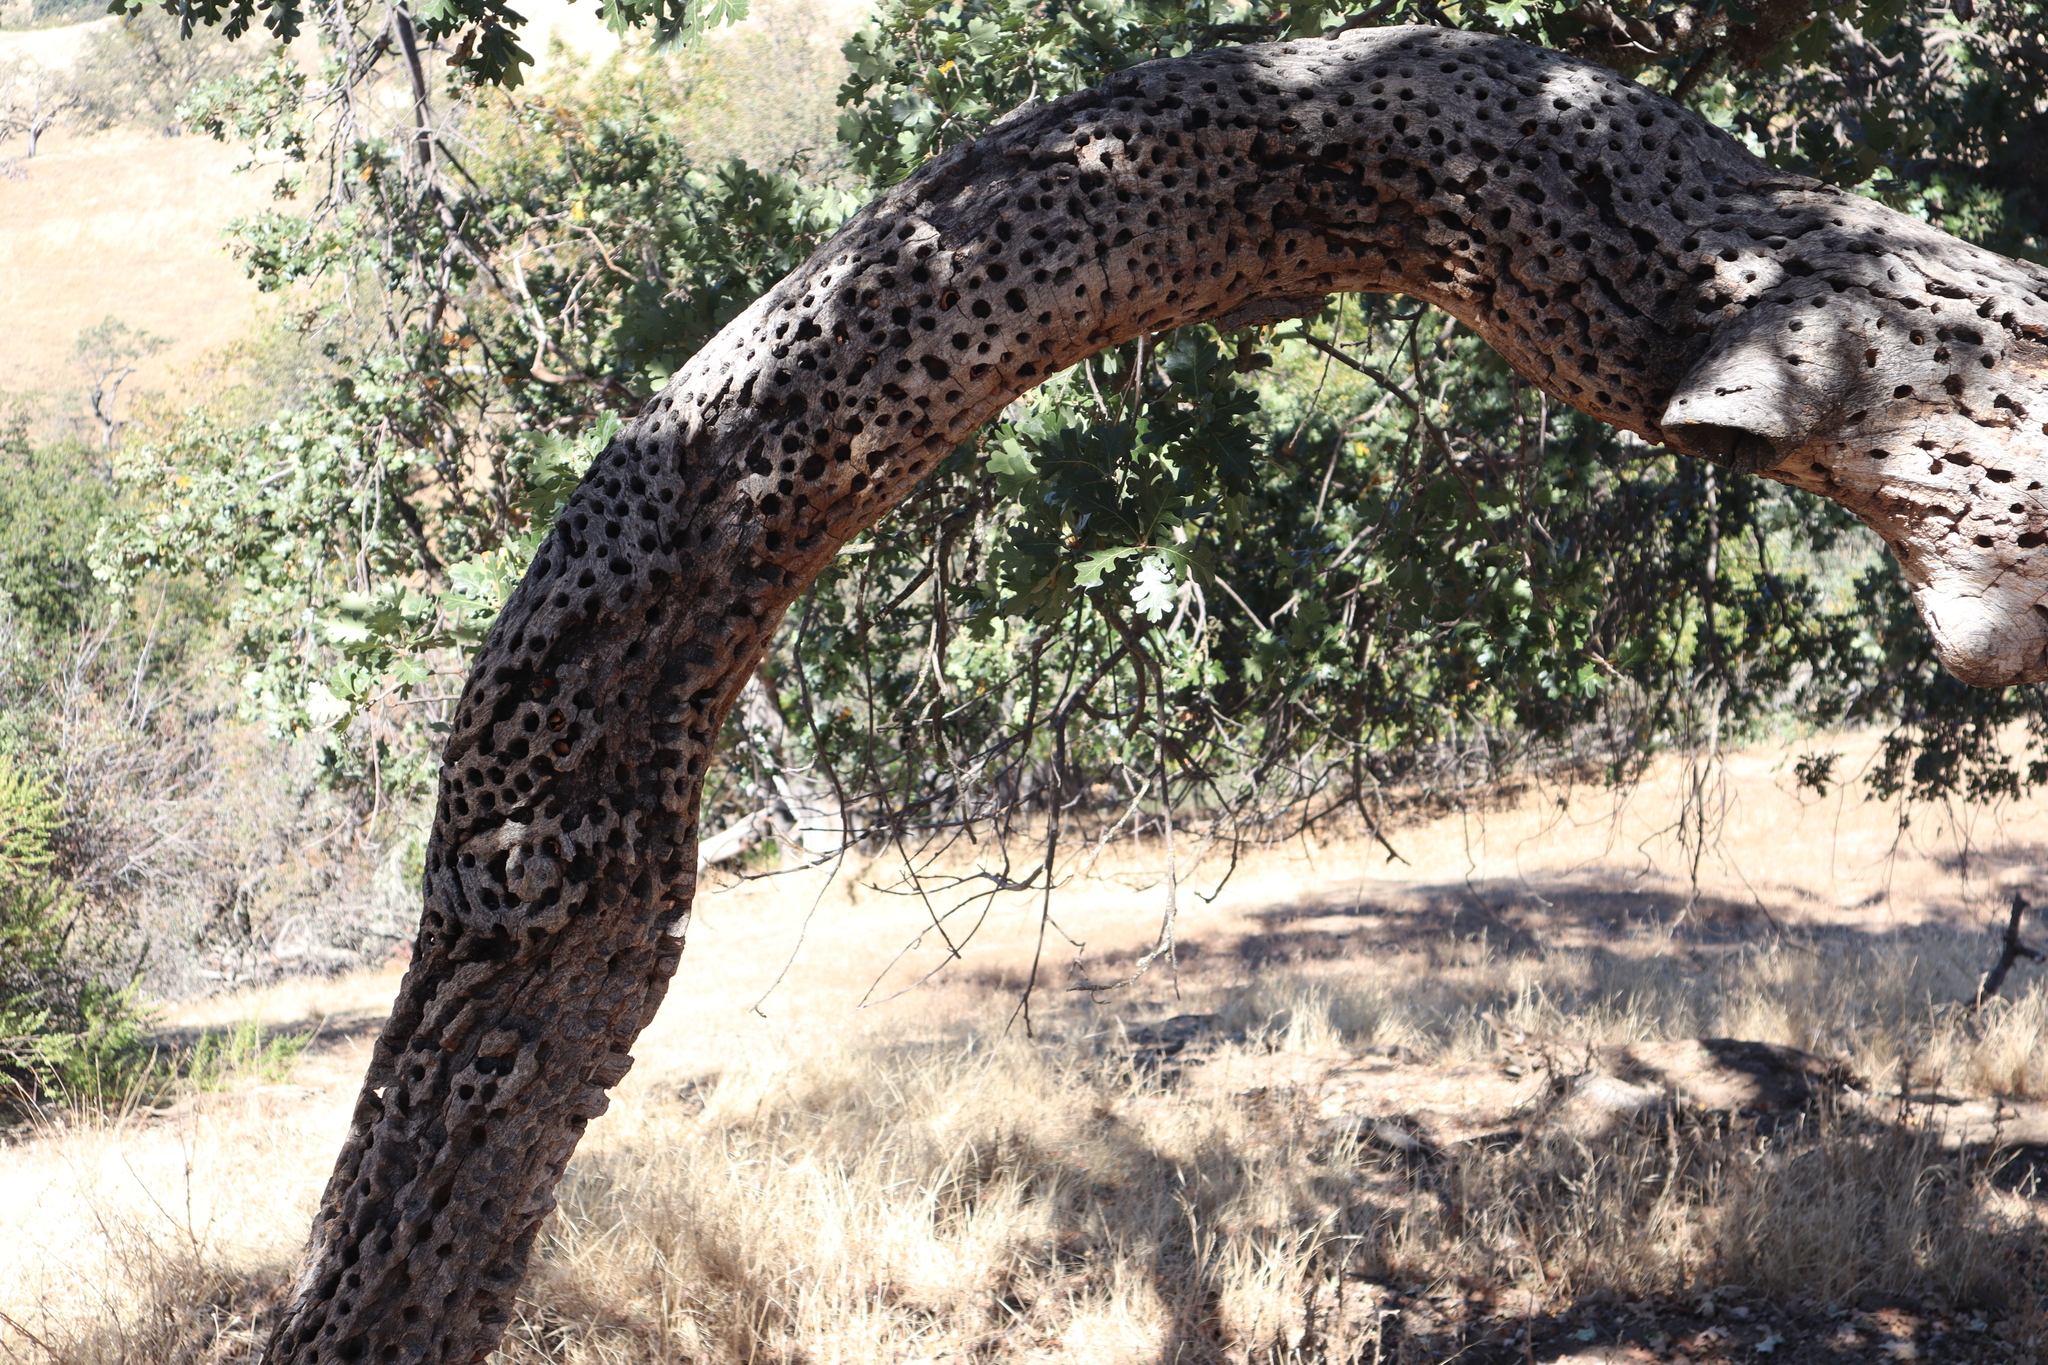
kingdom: Animalia
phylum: Chordata
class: Aves
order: Piciformes
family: Picidae
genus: Melanerpes
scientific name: Melanerpes formicivorus
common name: Acorn woodpecker
